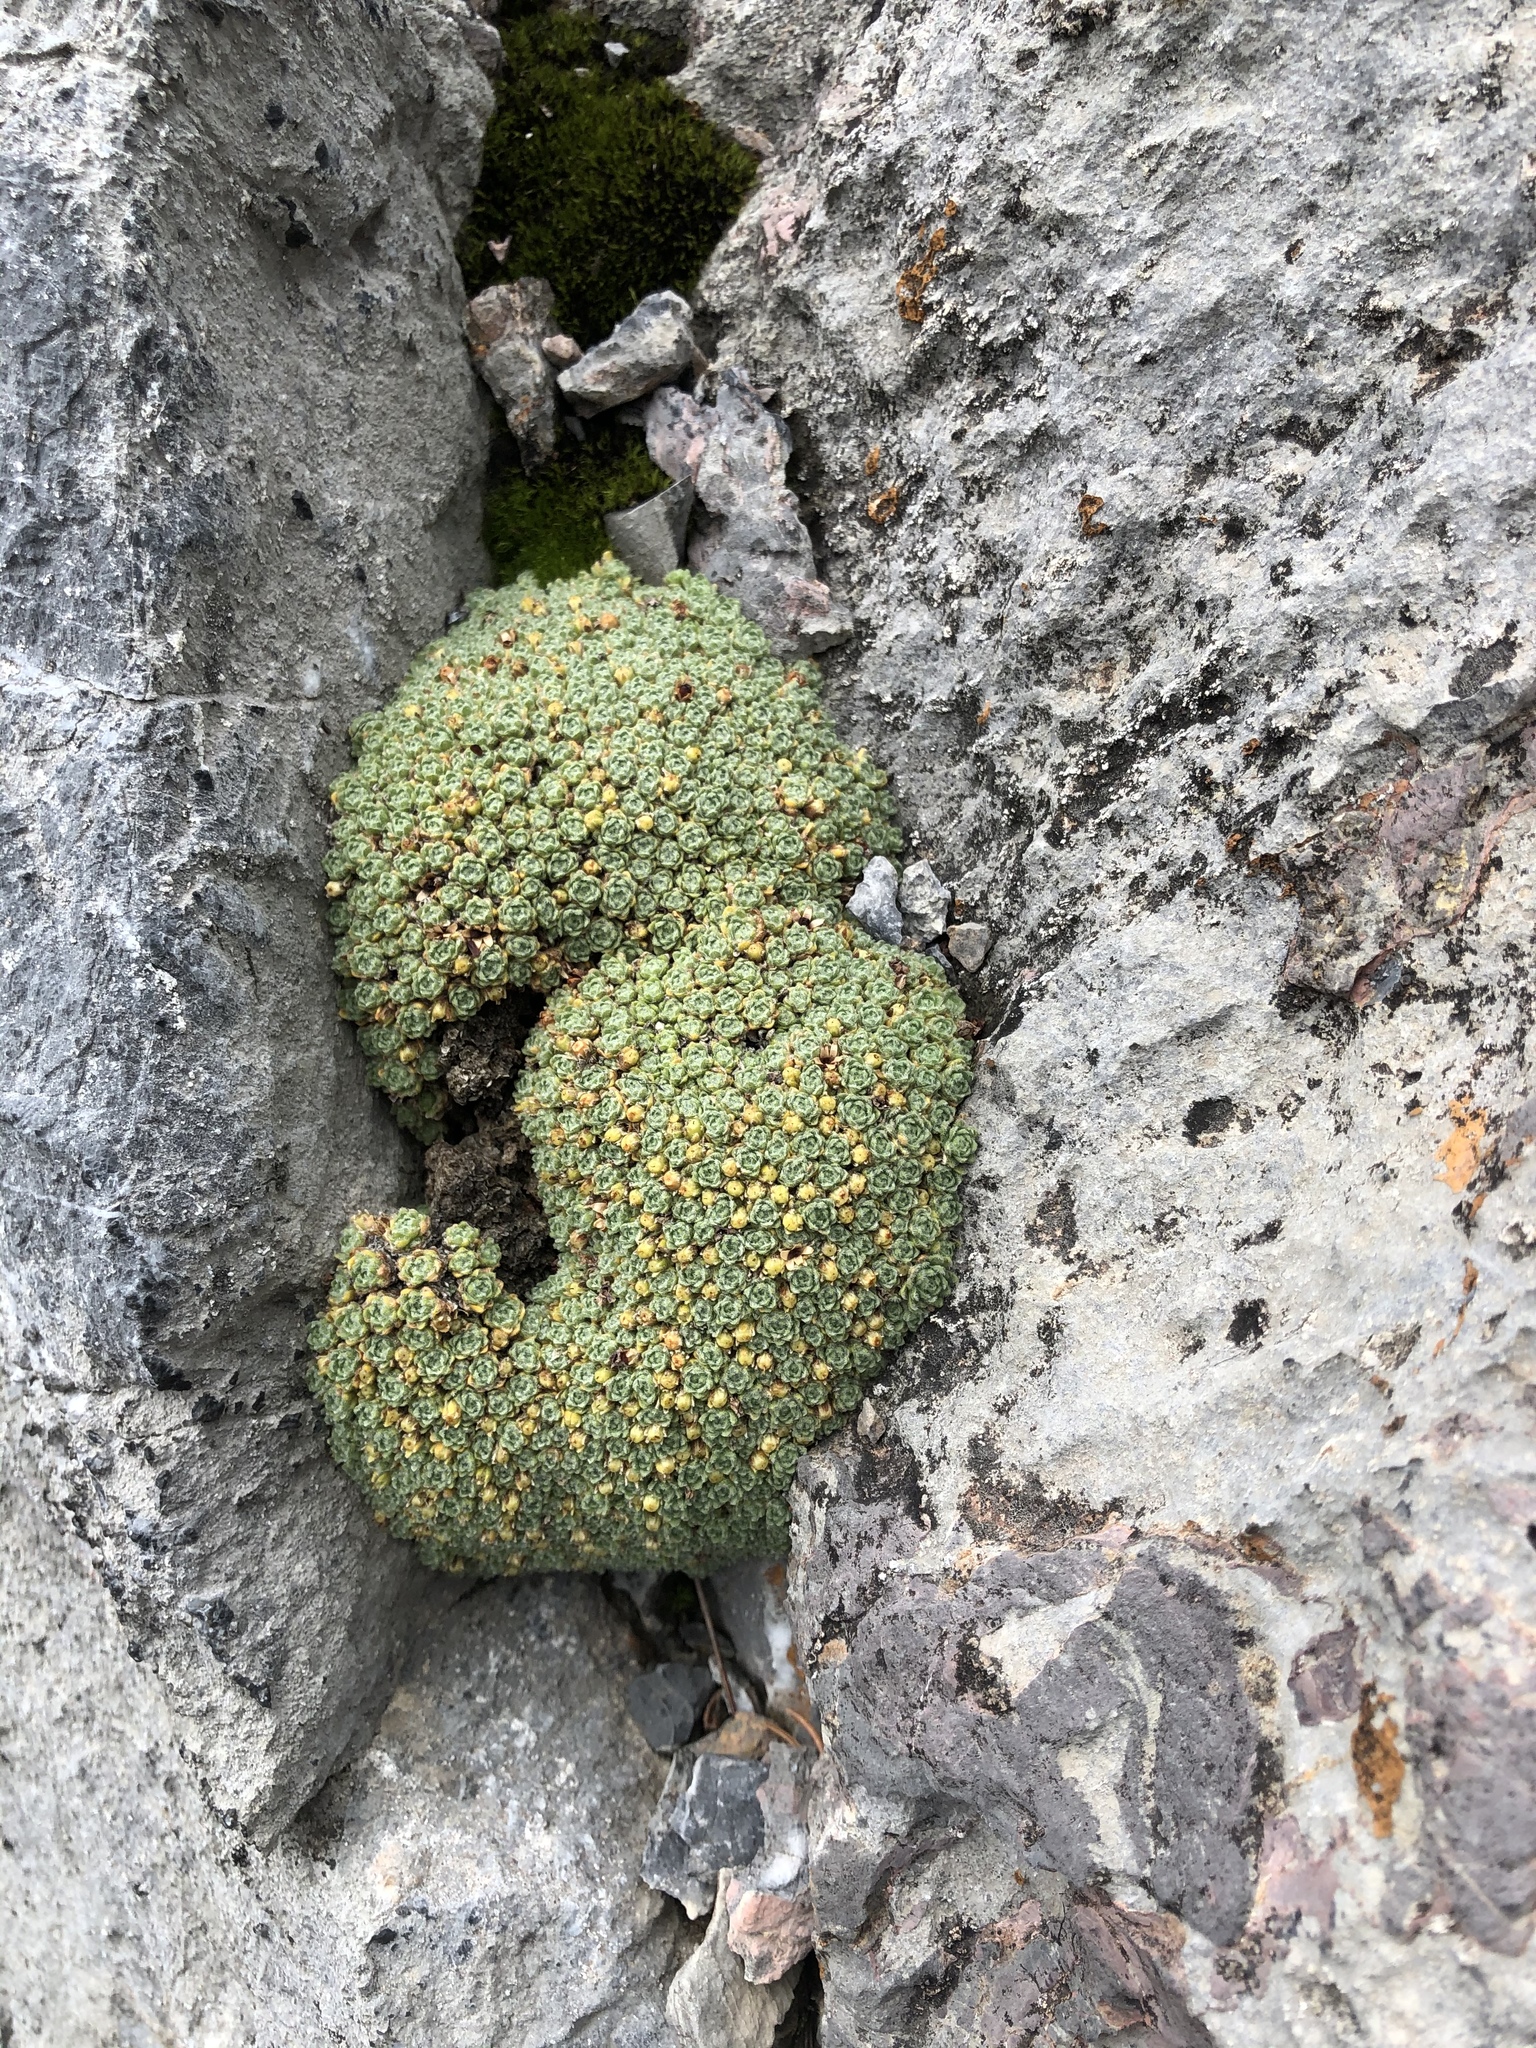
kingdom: Plantae
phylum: Tracheophyta
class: Magnoliopsida
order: Ericales
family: Primulaceae
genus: Androsace
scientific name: Androsace helvetica
